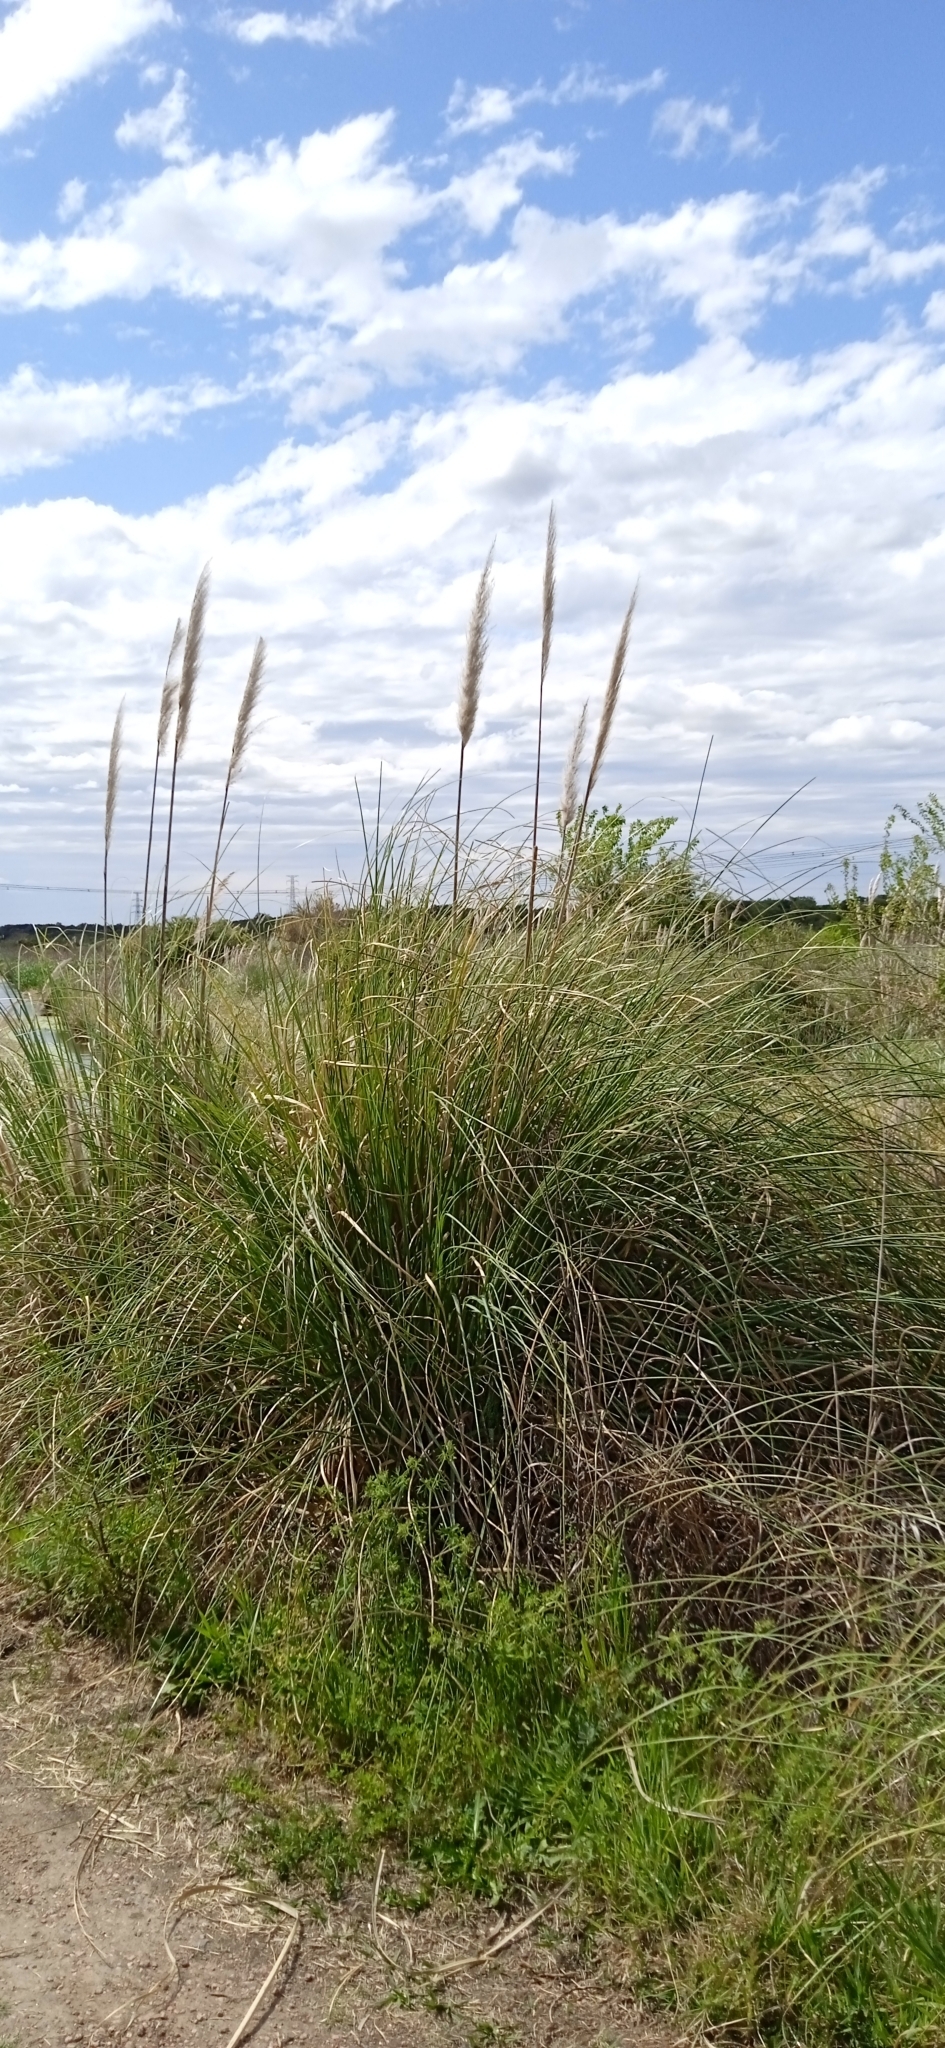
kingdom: Plantae
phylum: Tracheophyta
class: Liliopsida
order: Poales
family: Poaceae
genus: Cortaderia
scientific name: Cortaderia selloana
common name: Uruguayan pampas grass
